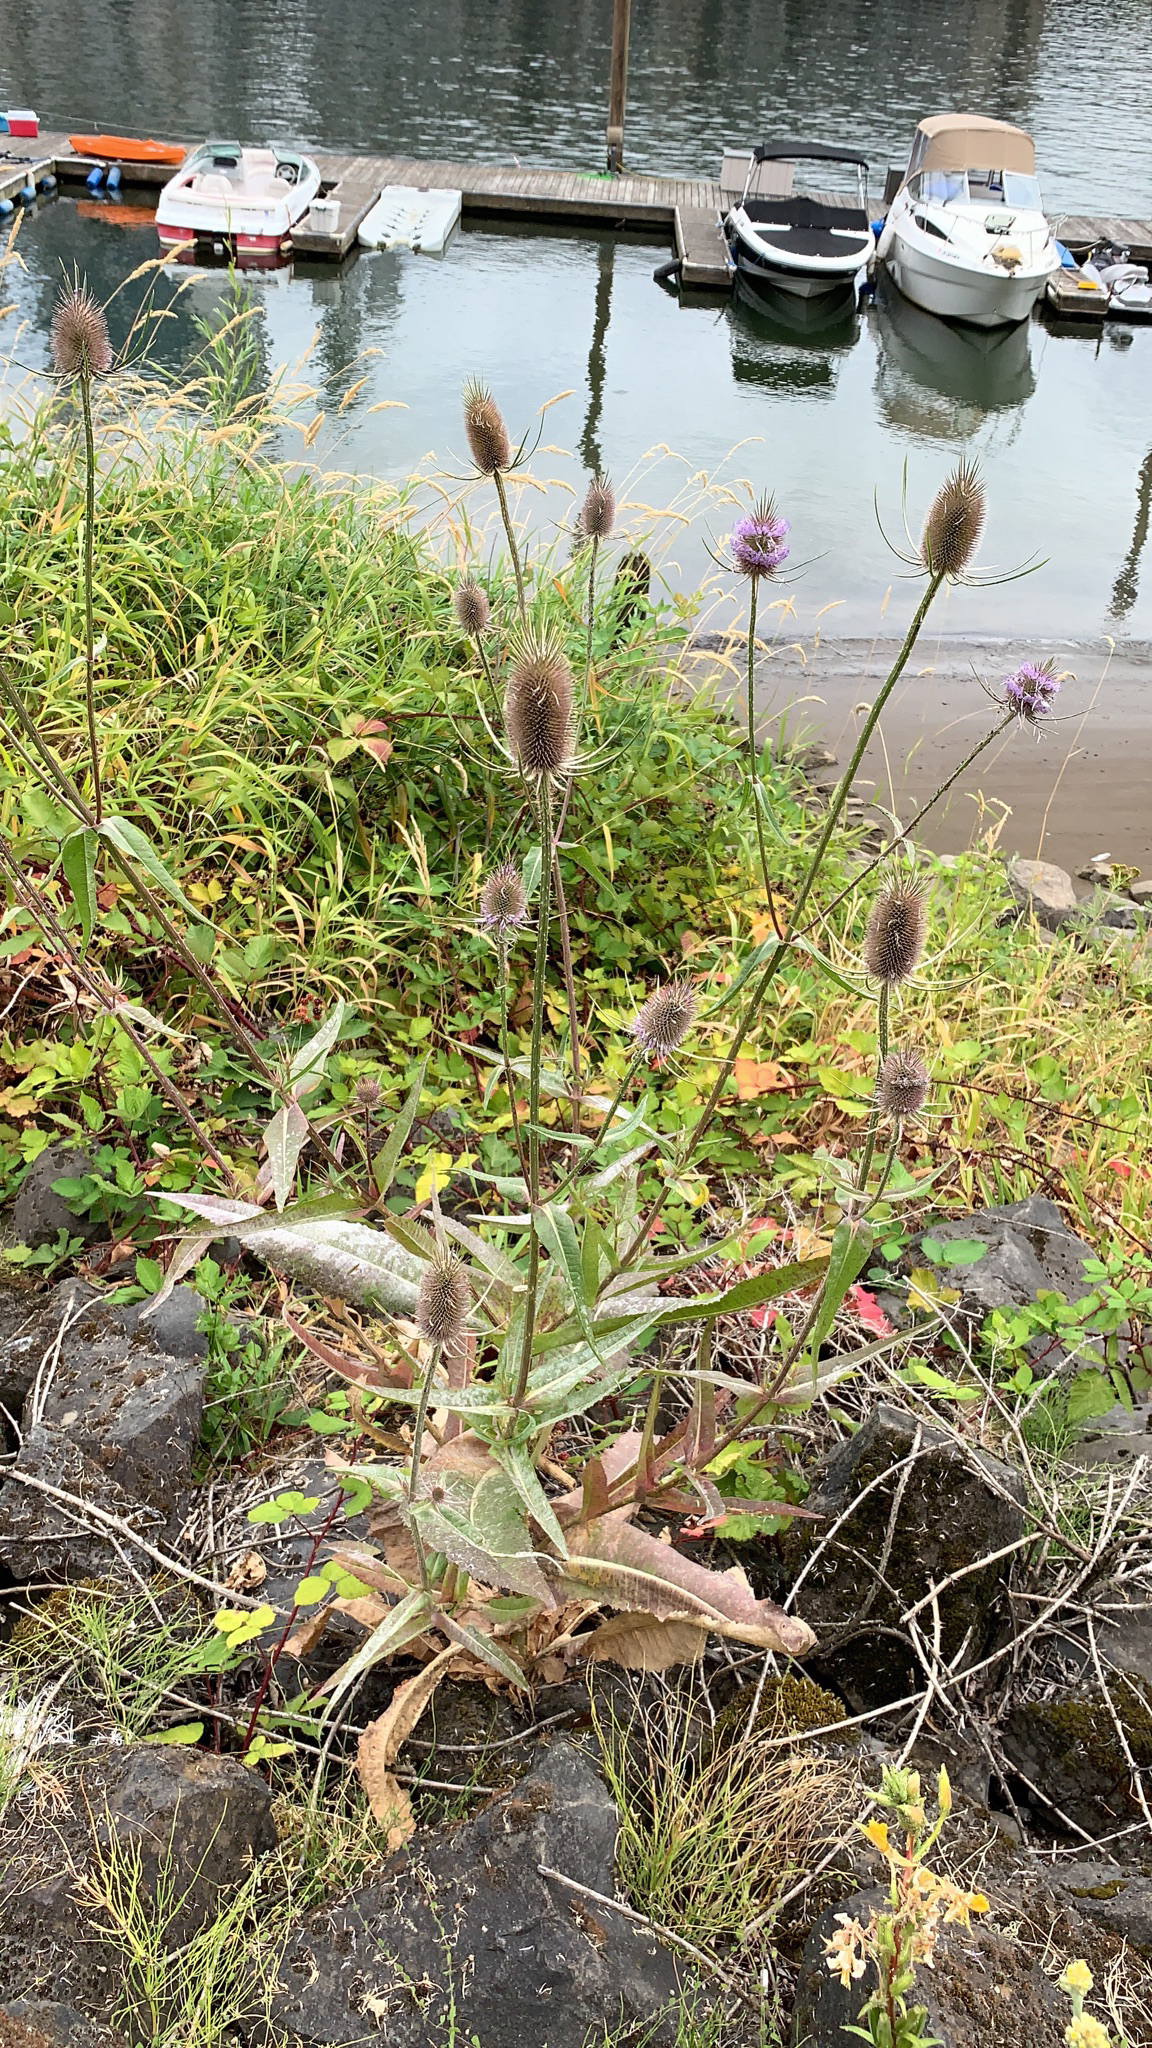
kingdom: Plantae
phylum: Tracheophyta
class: Magnoliopsida
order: Dipsacales
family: Caprifoliaceae
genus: Dipsacus
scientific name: Dipsacus fullonum
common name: Teasel
